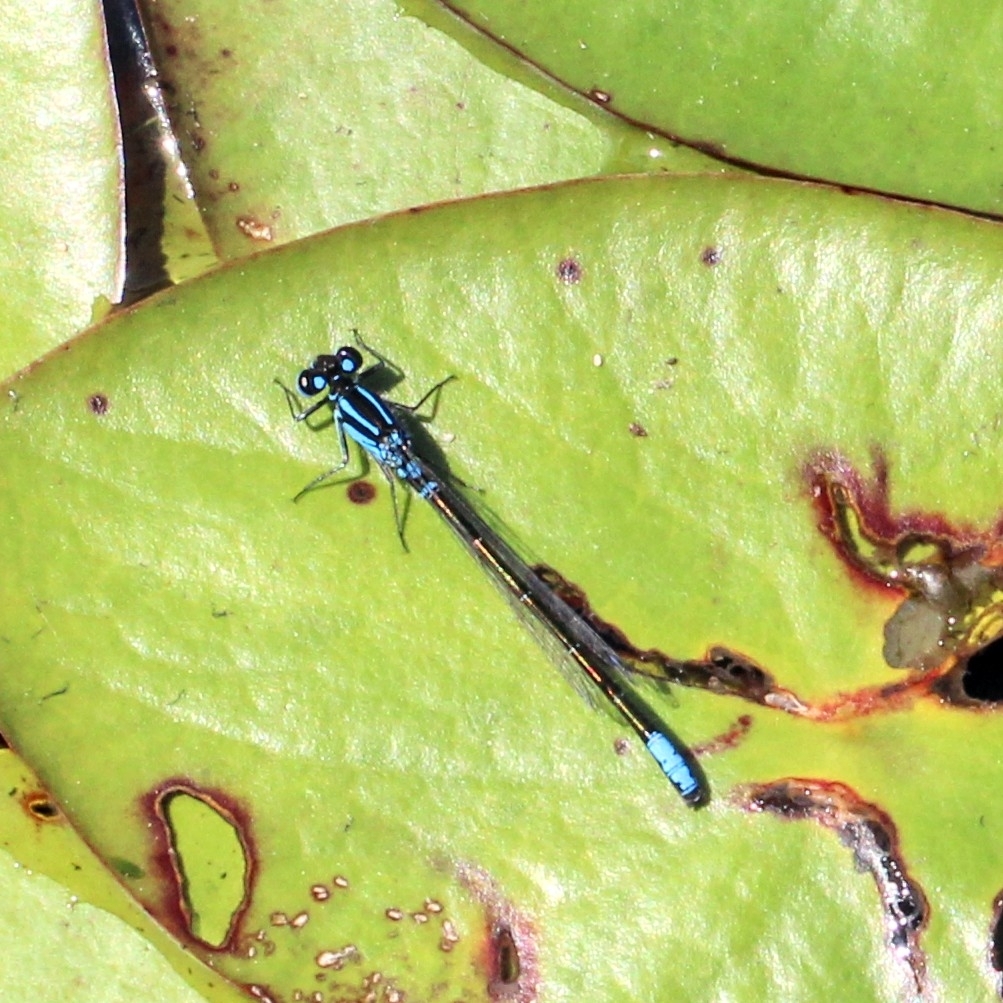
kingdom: Animalia
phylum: Arthropoda
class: Insecta
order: Odonata
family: Coenagrionidae
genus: Ischnura
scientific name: Ischnura kellicotti
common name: Lilypad forktail
